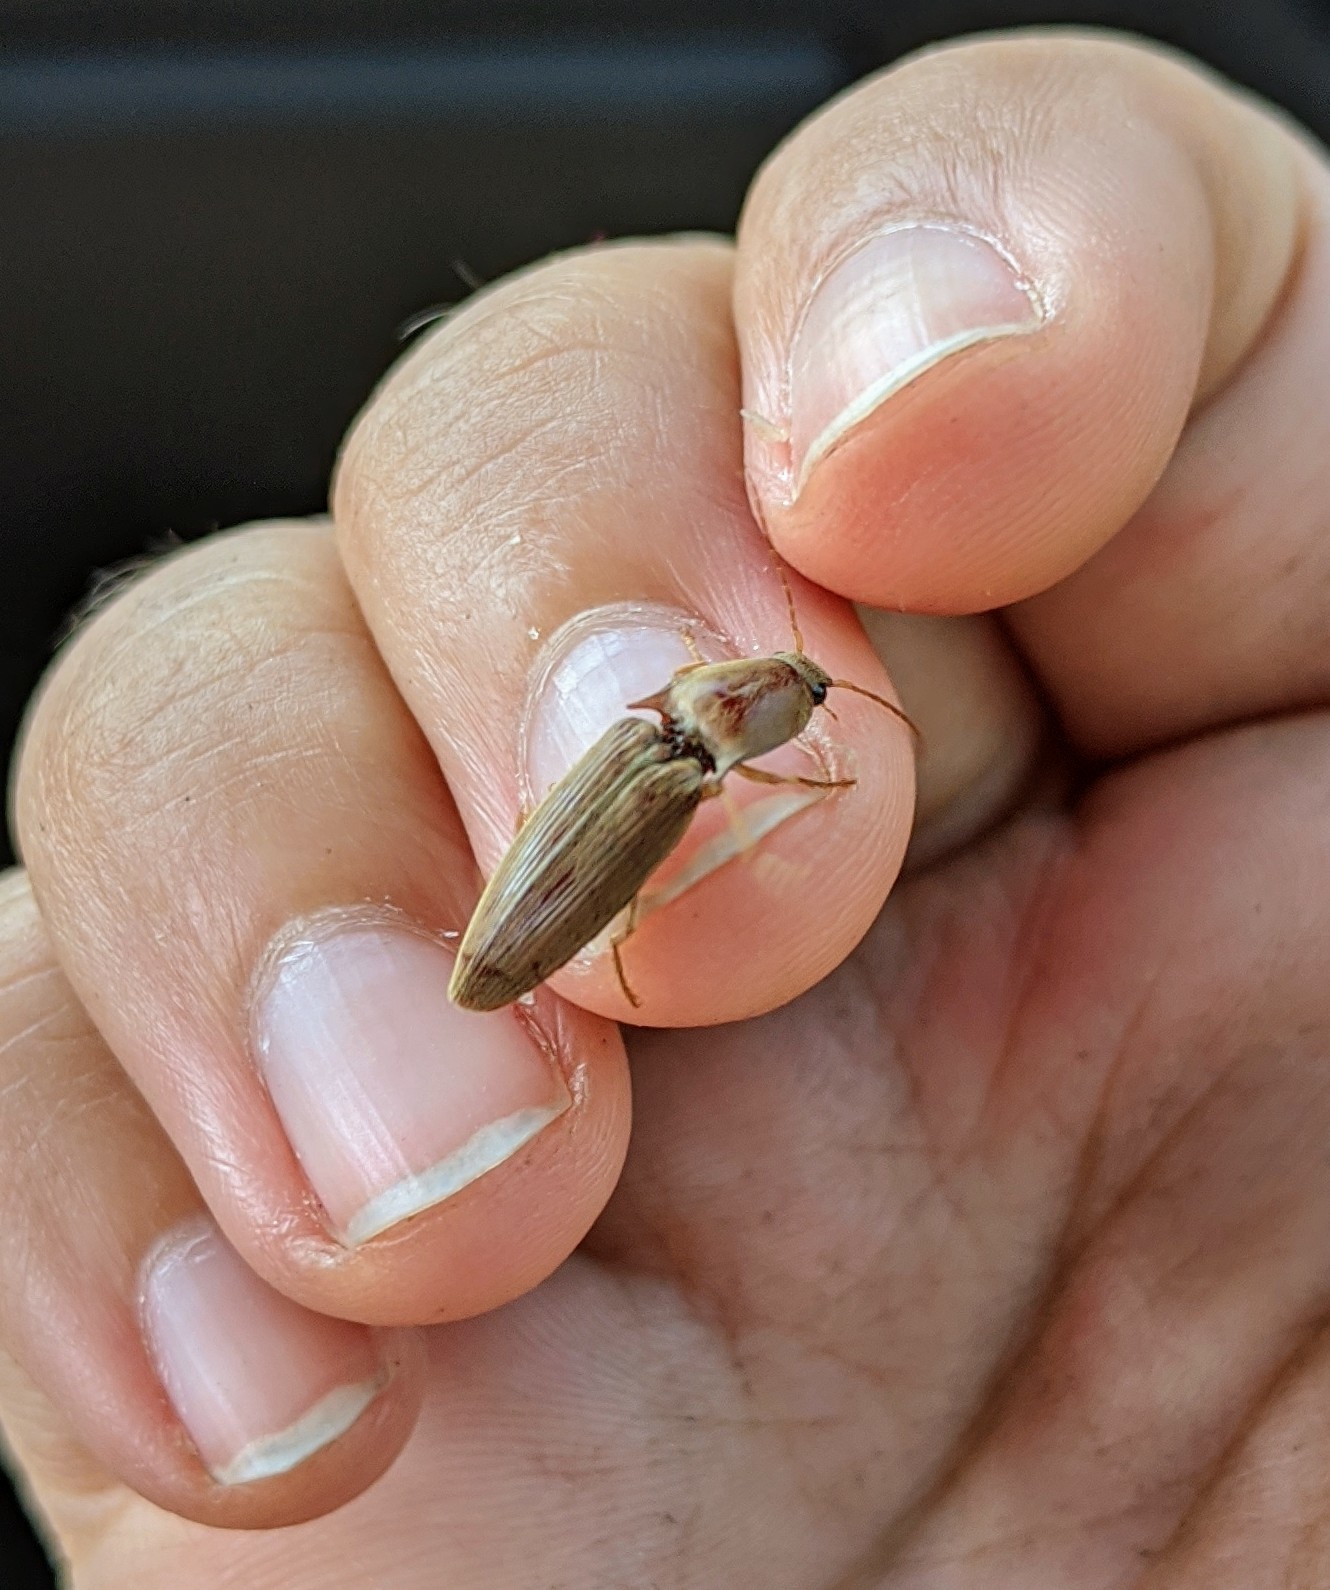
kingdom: Animalia
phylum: Arthropoda
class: Insecta
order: Coleoptera
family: Elateridae
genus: Monocrepidius
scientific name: Monocrepidius lividus
